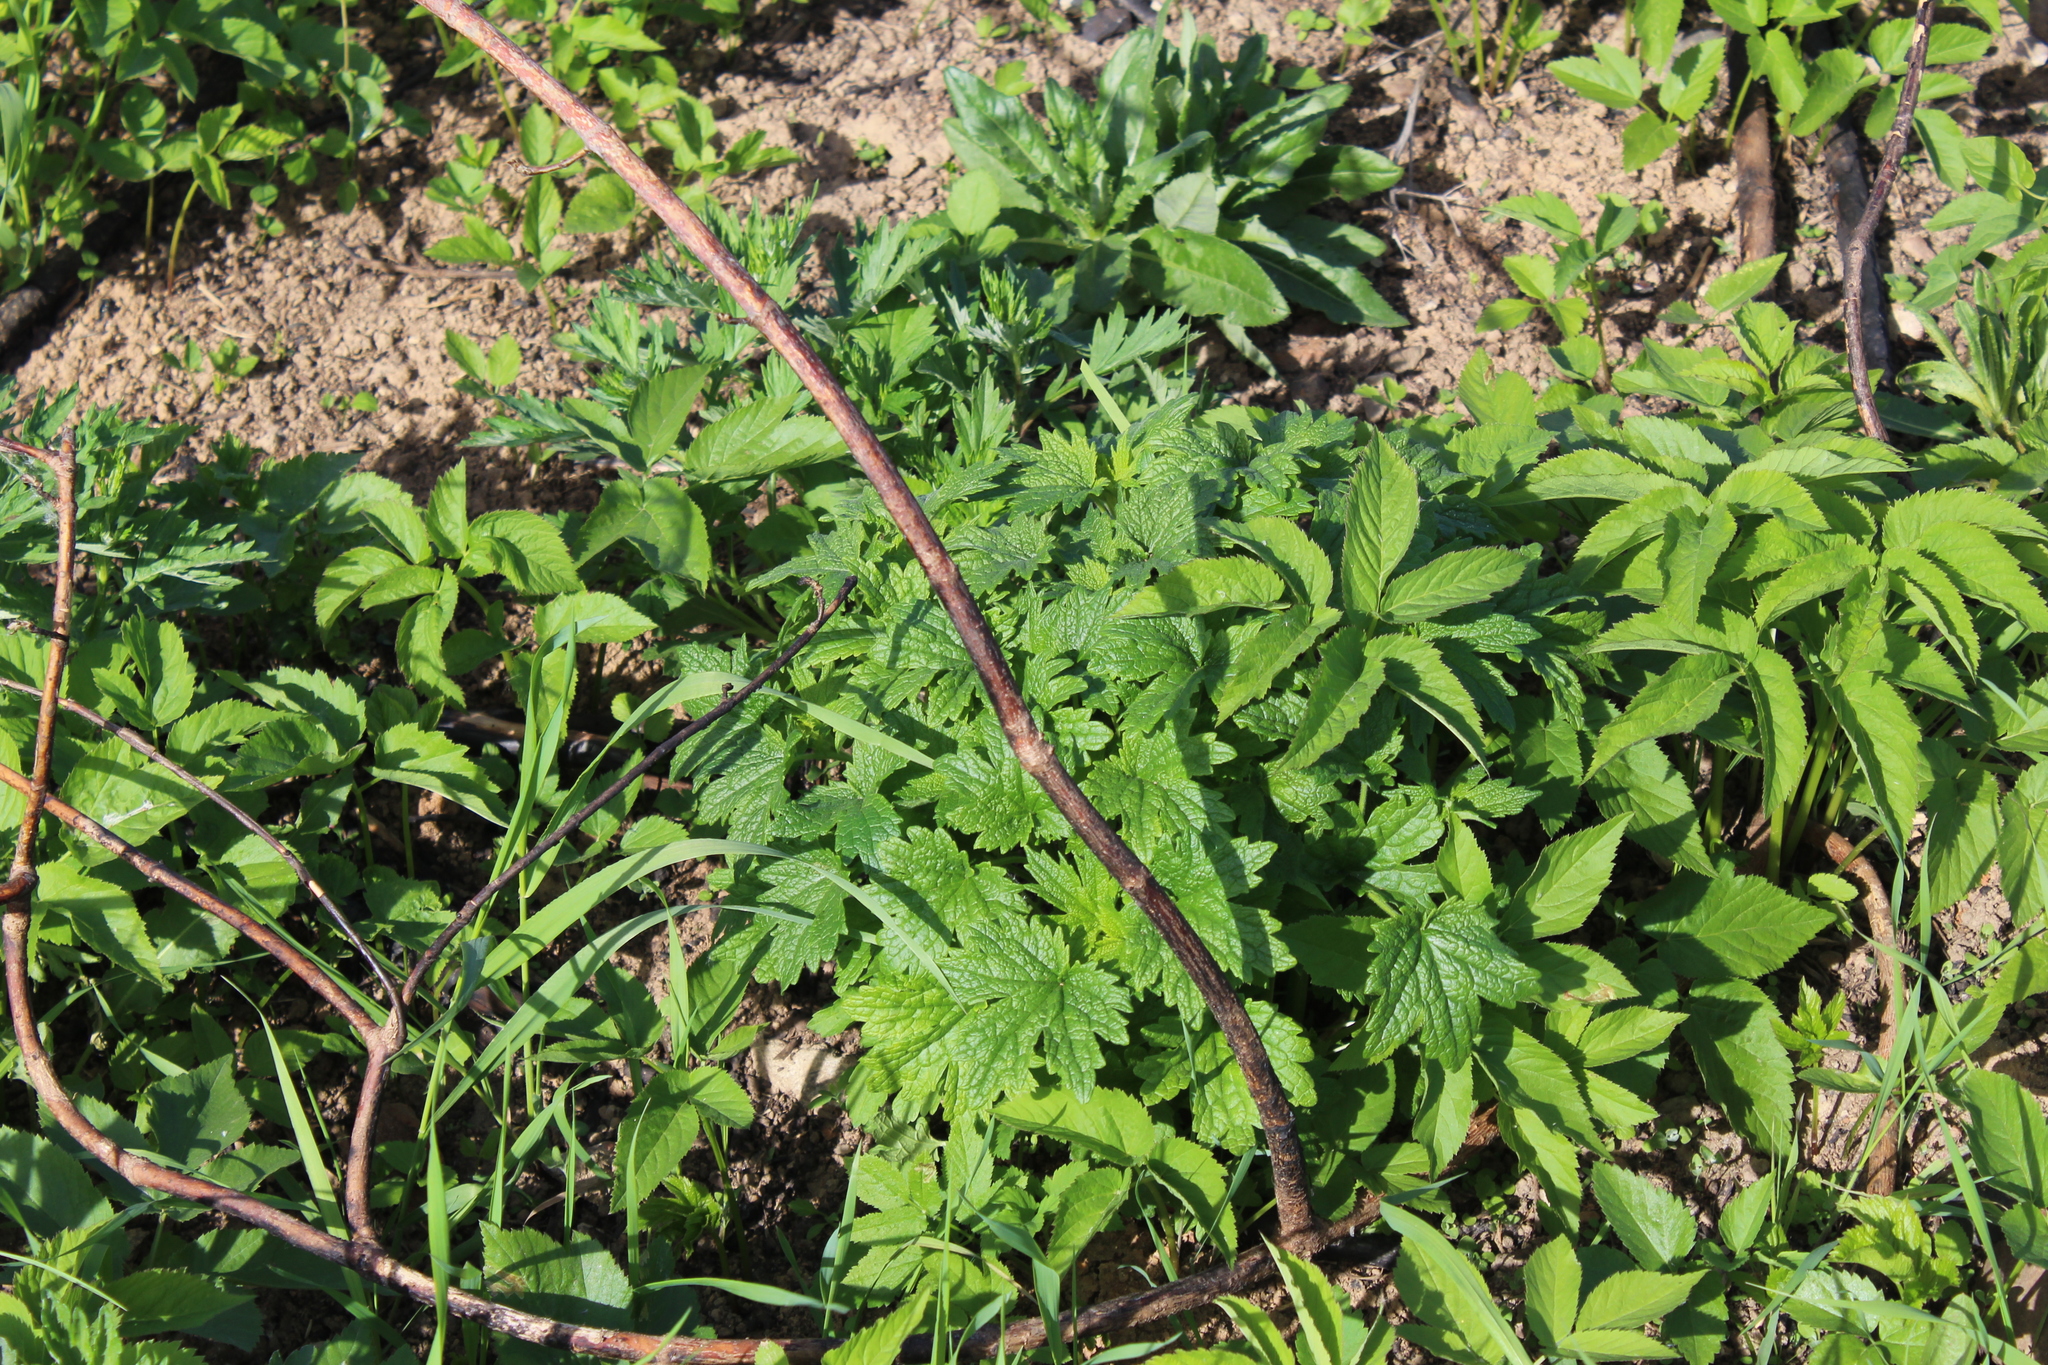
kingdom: Plantae
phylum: Tracheophyta
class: Magnoliopsida
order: Lamiales
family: Lamiaceae
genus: Leonurus
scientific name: Leonurus quinquelobatus
